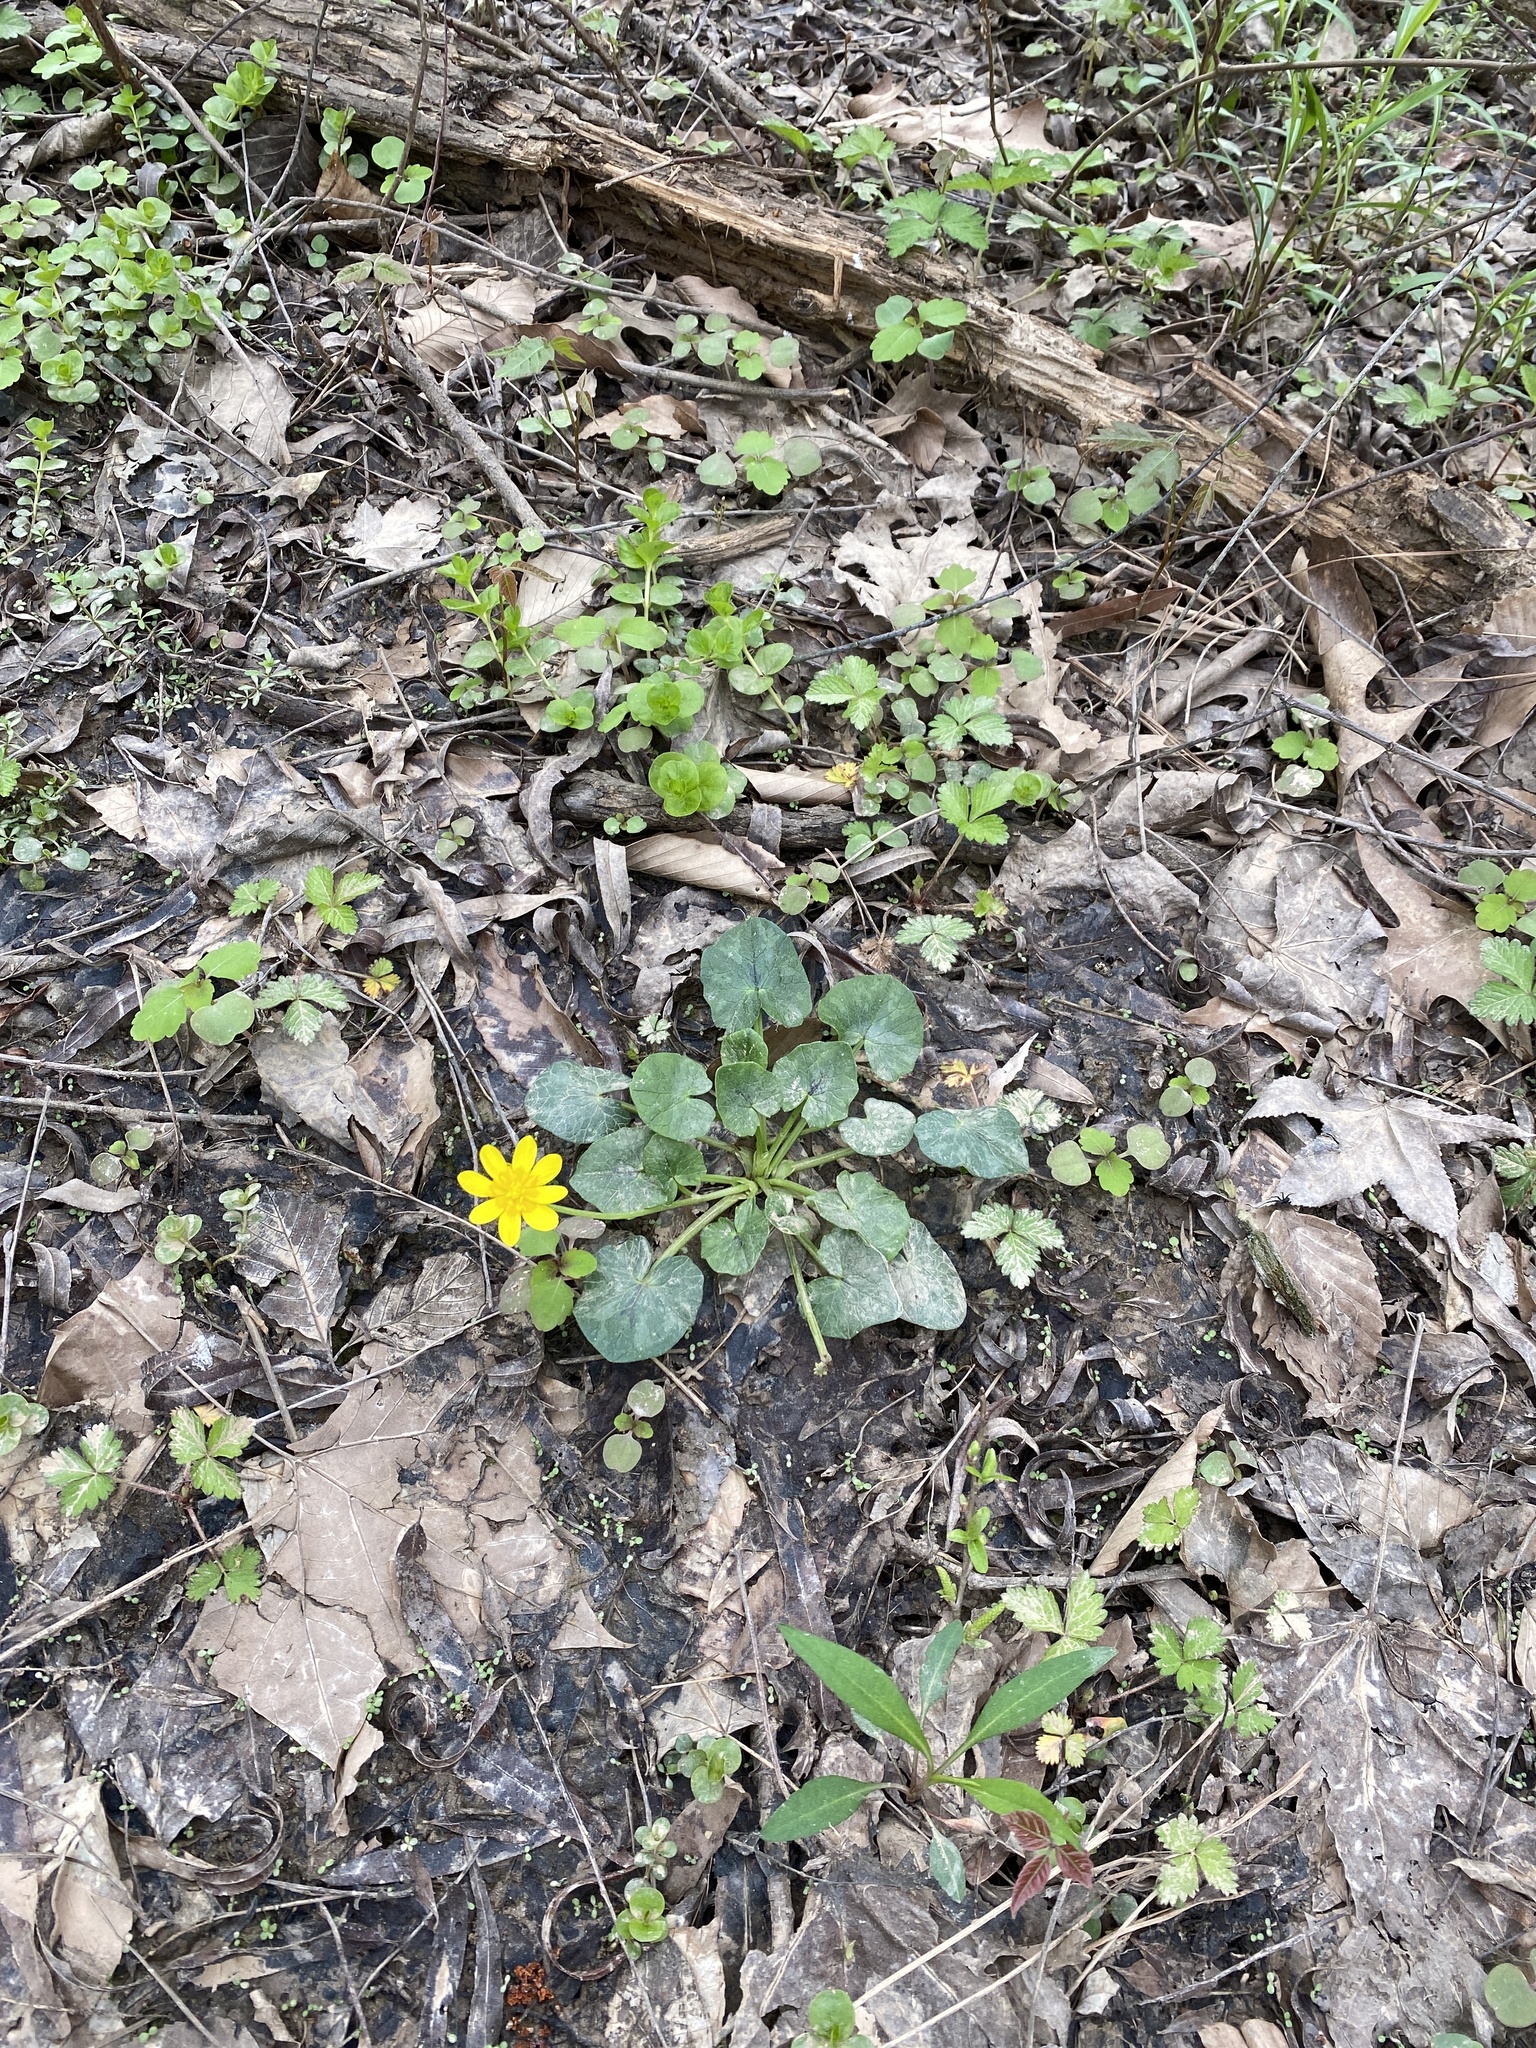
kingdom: Plantae
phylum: Tracheophyta
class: Magnoliopsida
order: Ranunculales
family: Ranunculaceae
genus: Ficaria
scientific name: Ficaria verna
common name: Lesser celandine
